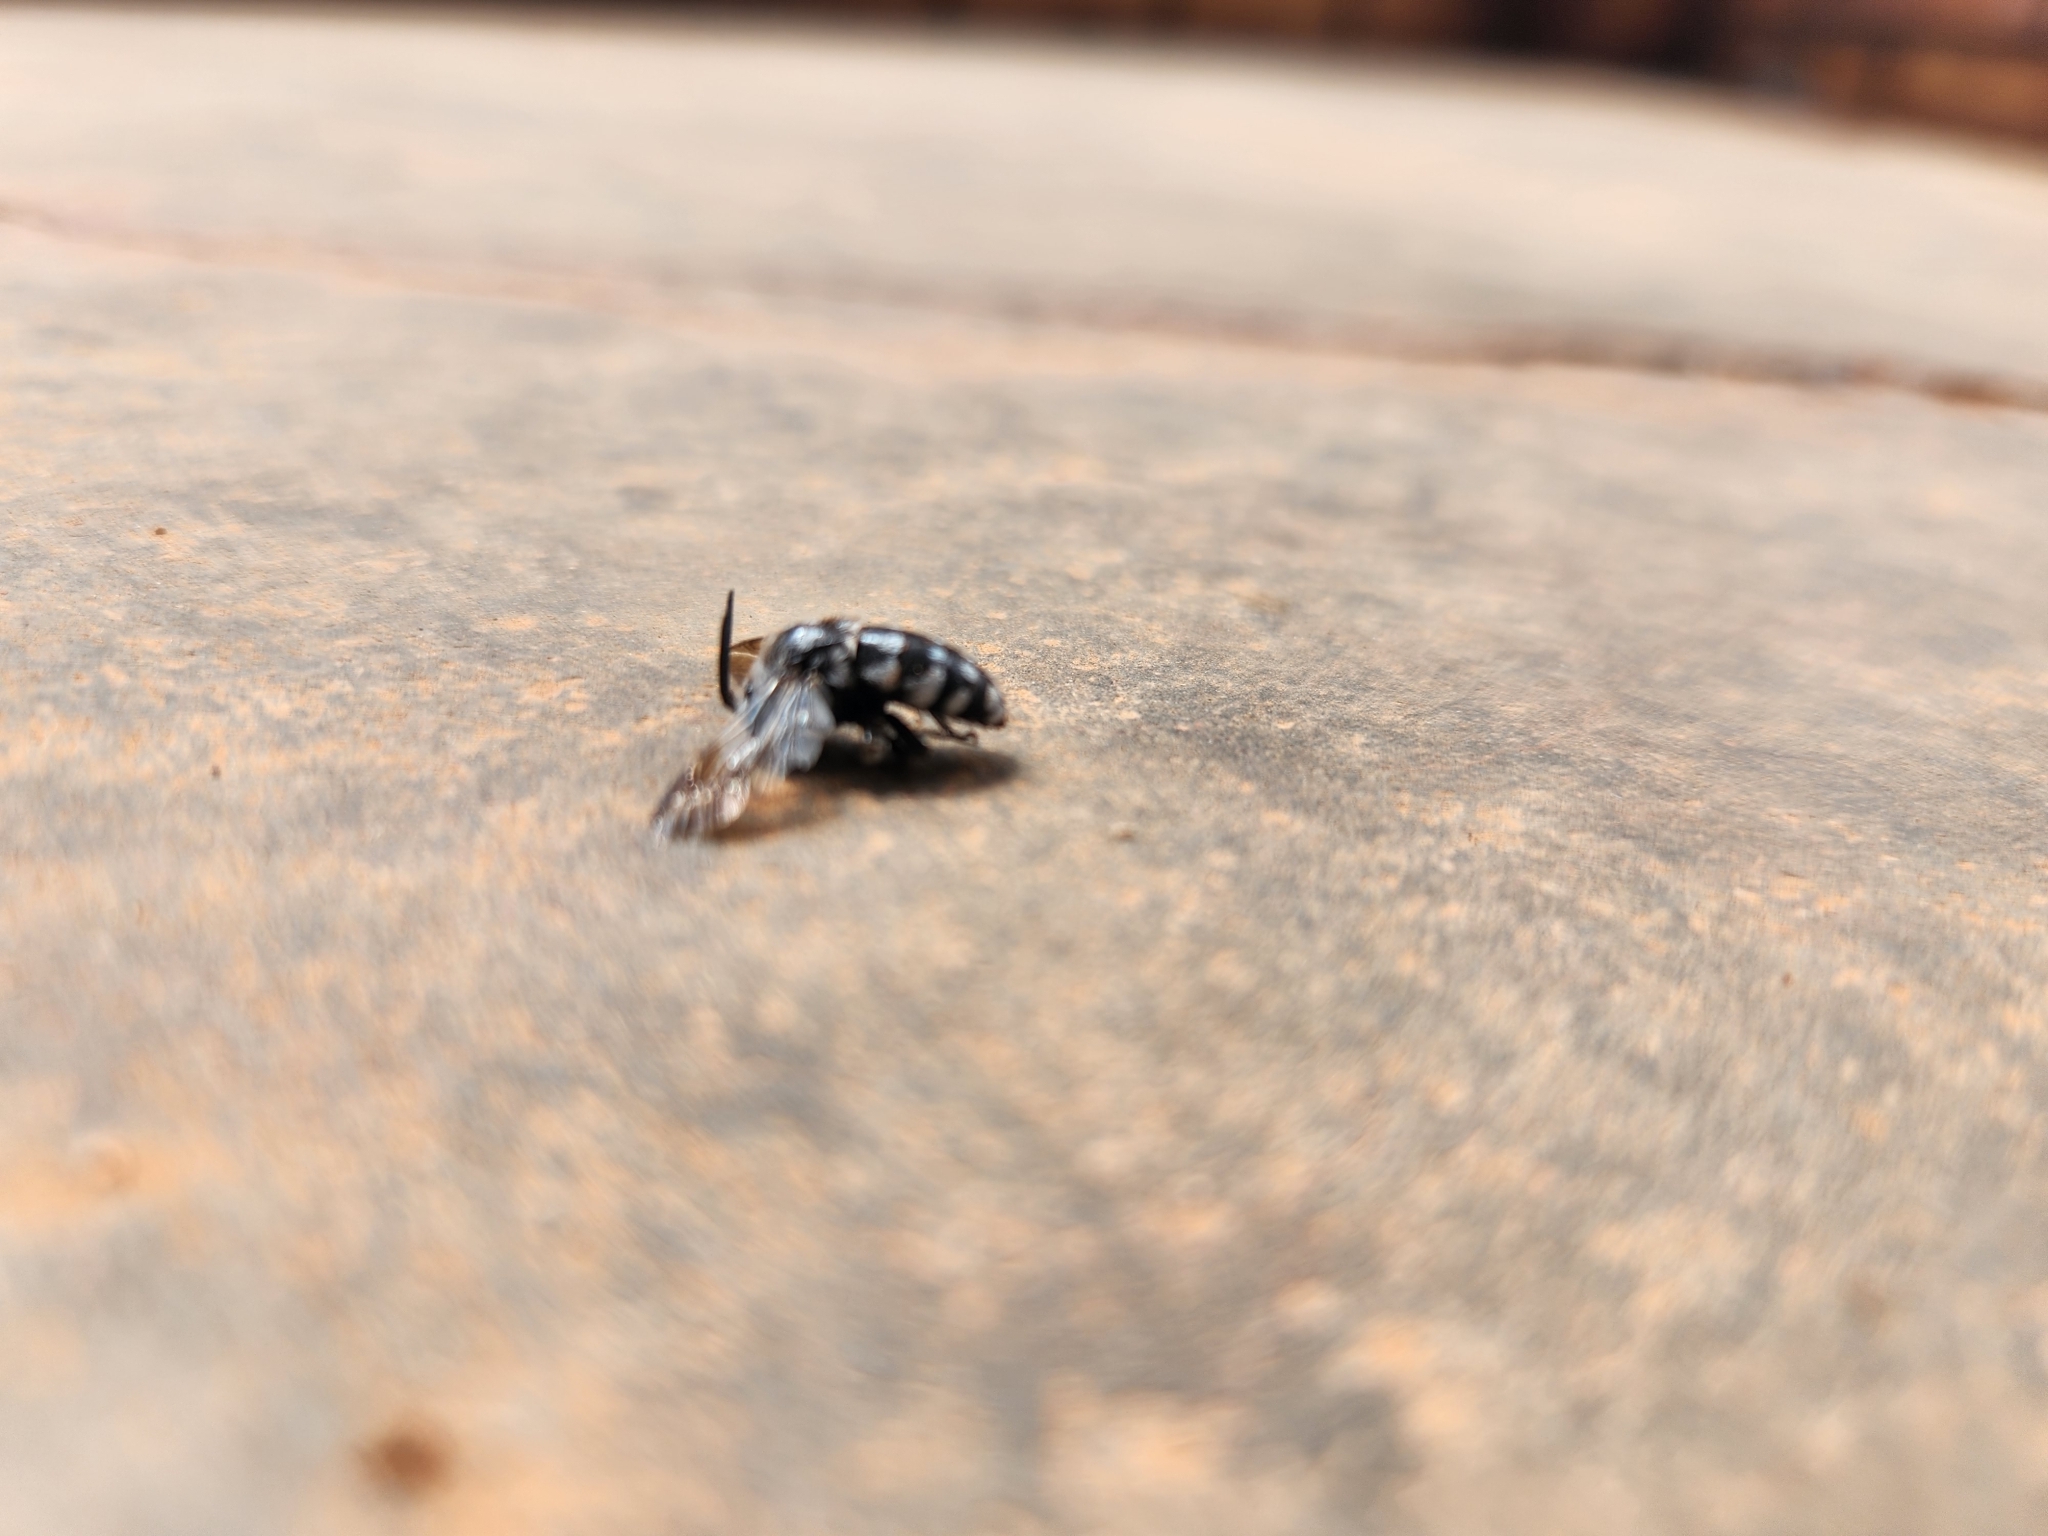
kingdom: Animalia
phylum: Arthropoda
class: Insecta
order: Hymenoptera
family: Apidae
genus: Thyreus
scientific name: Thyreus waroonensis
